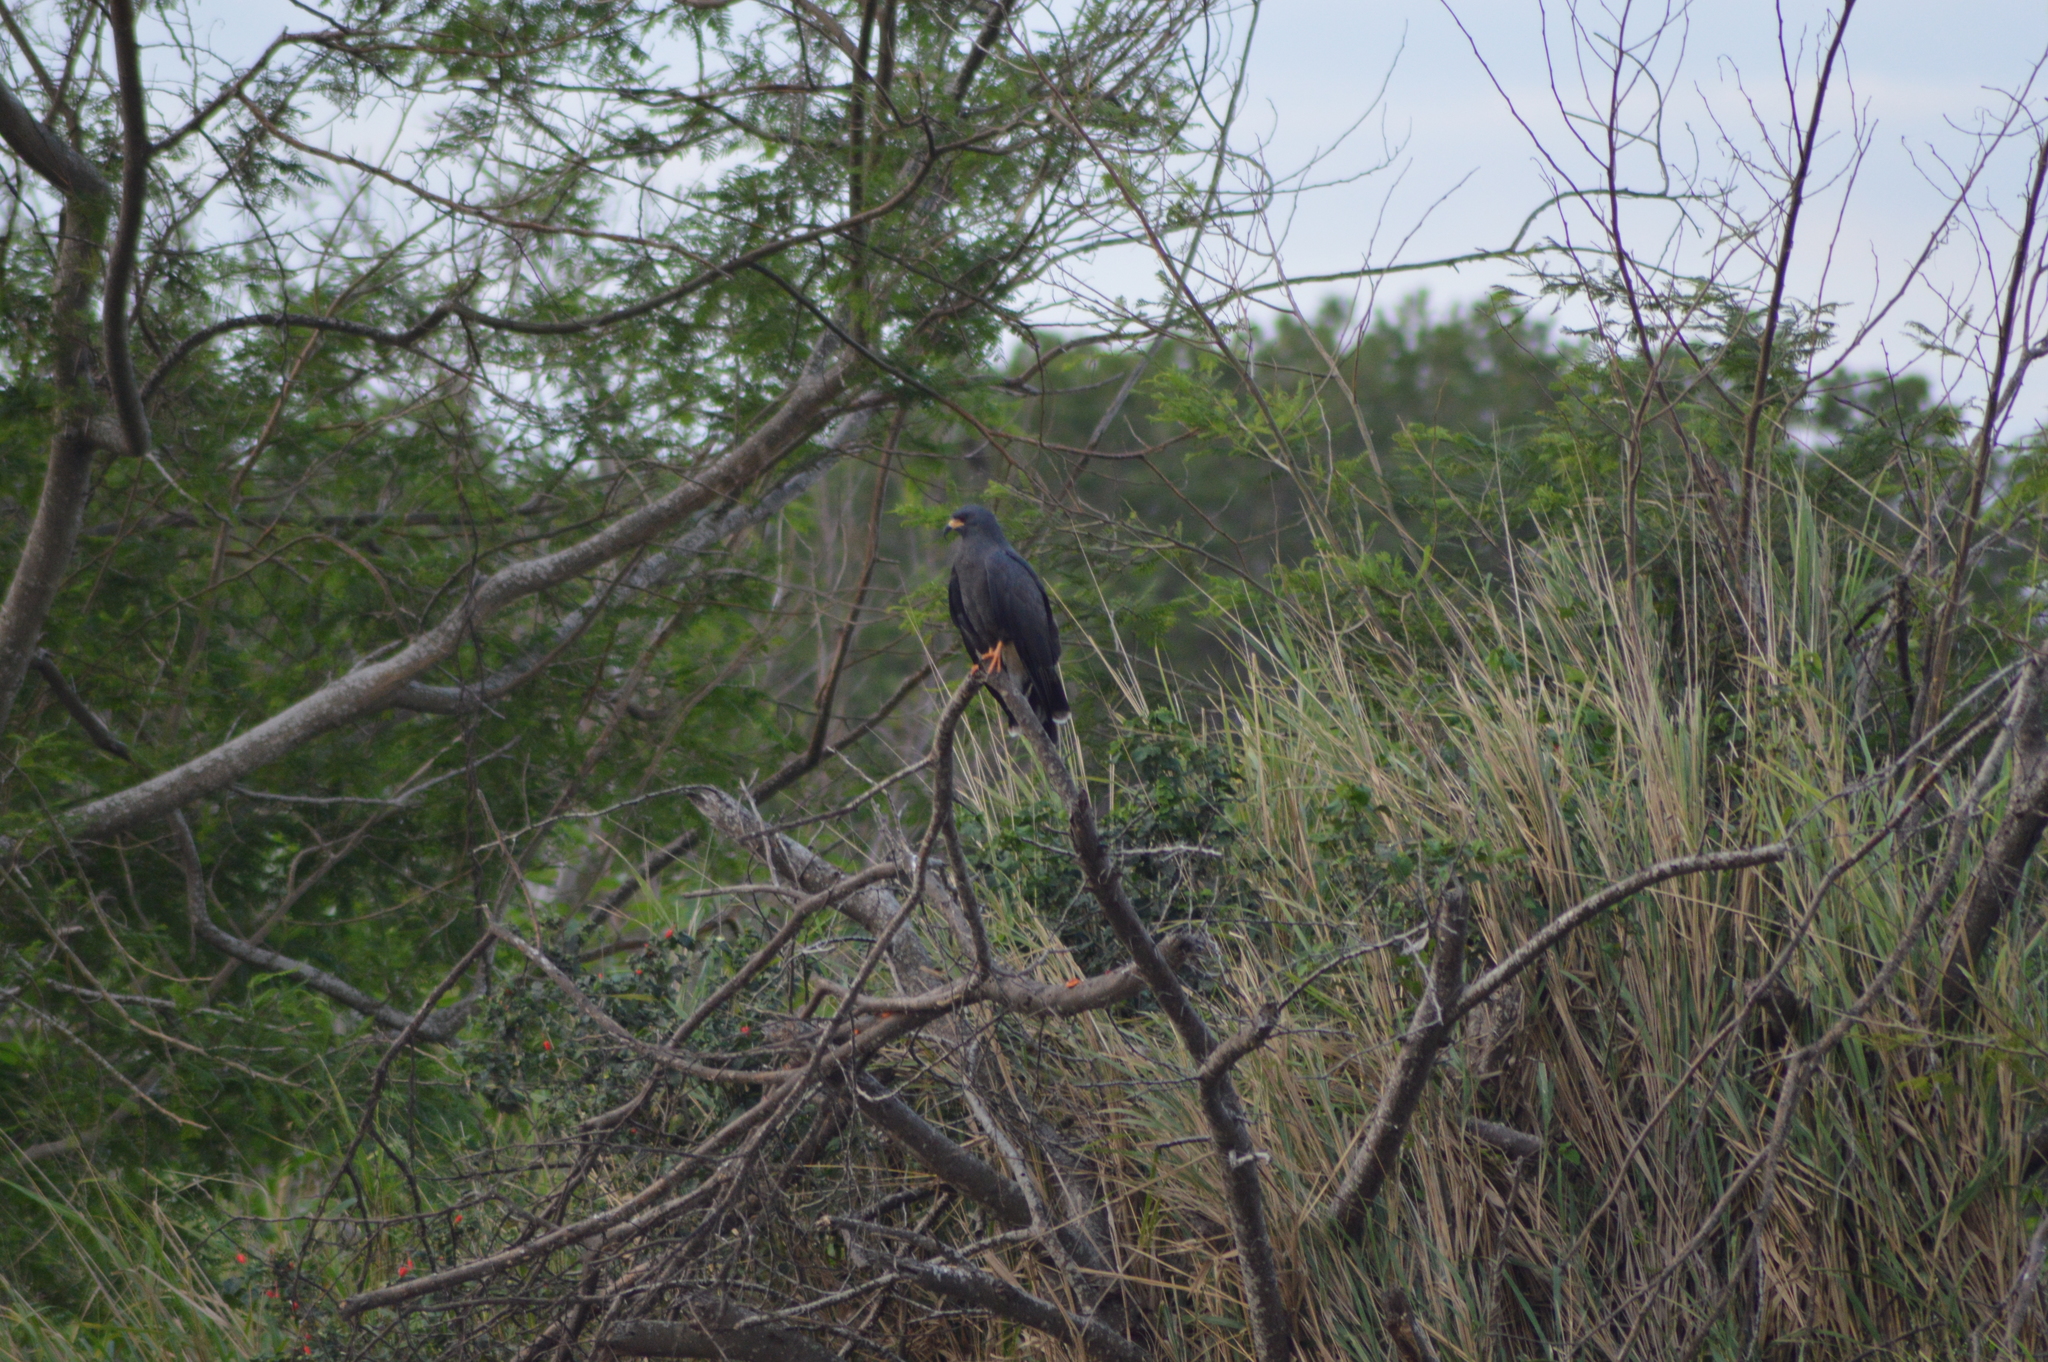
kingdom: Animalia
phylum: Chordata
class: Aves
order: Accipitriformes
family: Accipitridae
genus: Rostrhamus
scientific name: Rostrhamus sociabilis
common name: Snail kite
